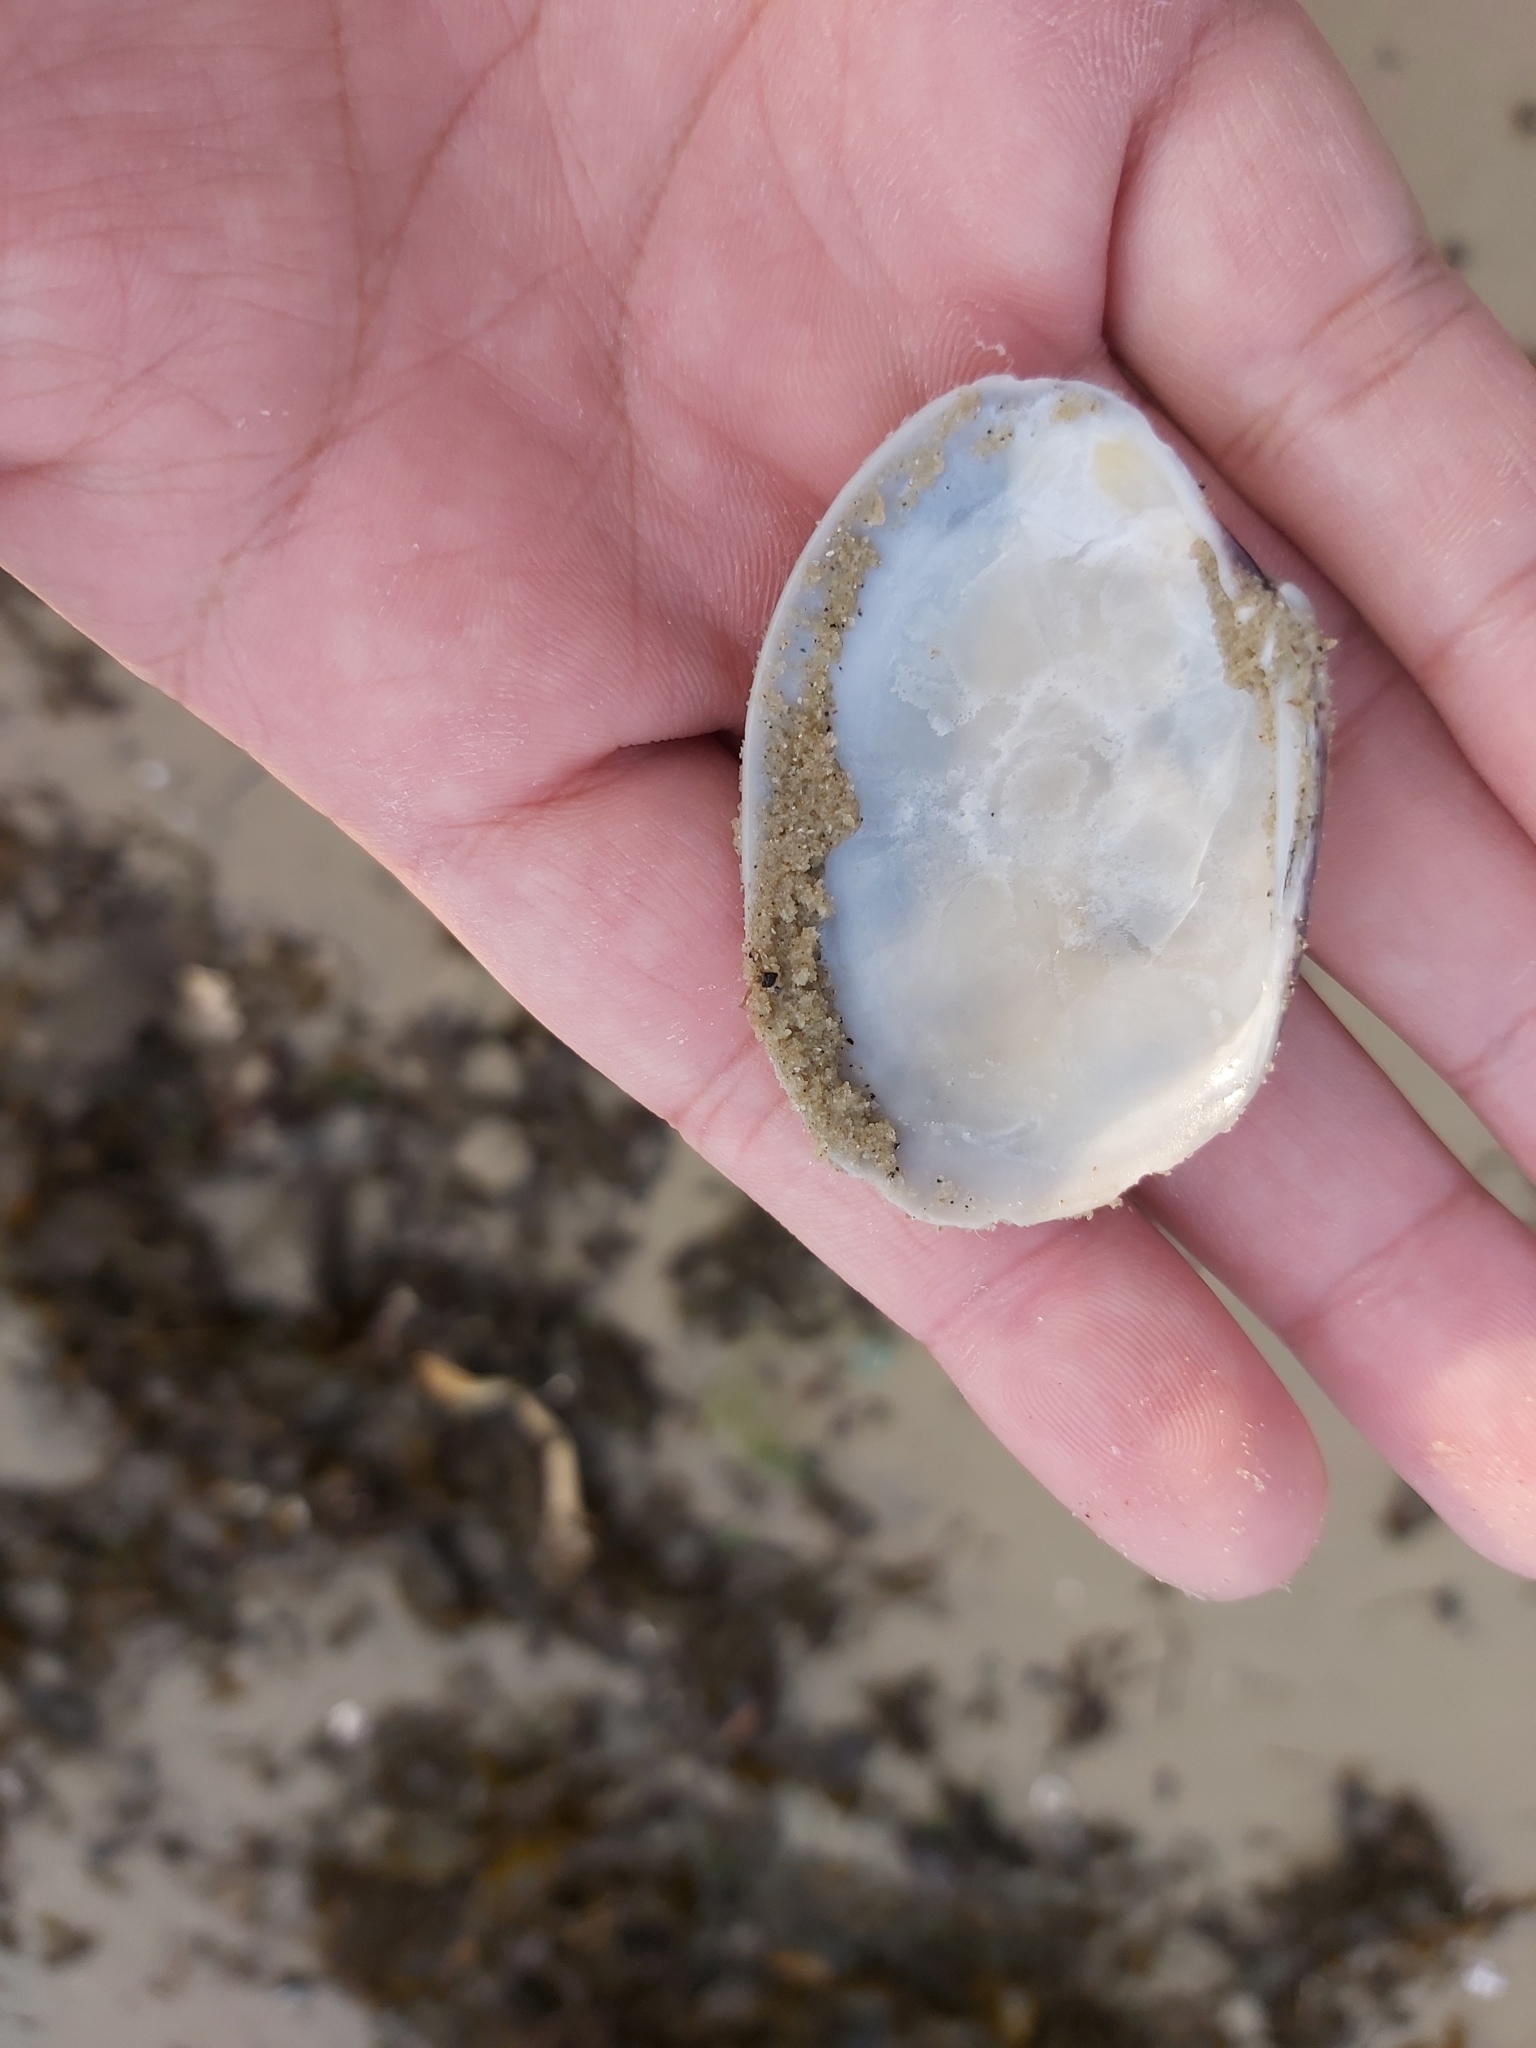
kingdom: Animalia
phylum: Mollusca
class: Bivalvia
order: Venerida
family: Veneridae
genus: Tapes
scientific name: Tapes conspersus
